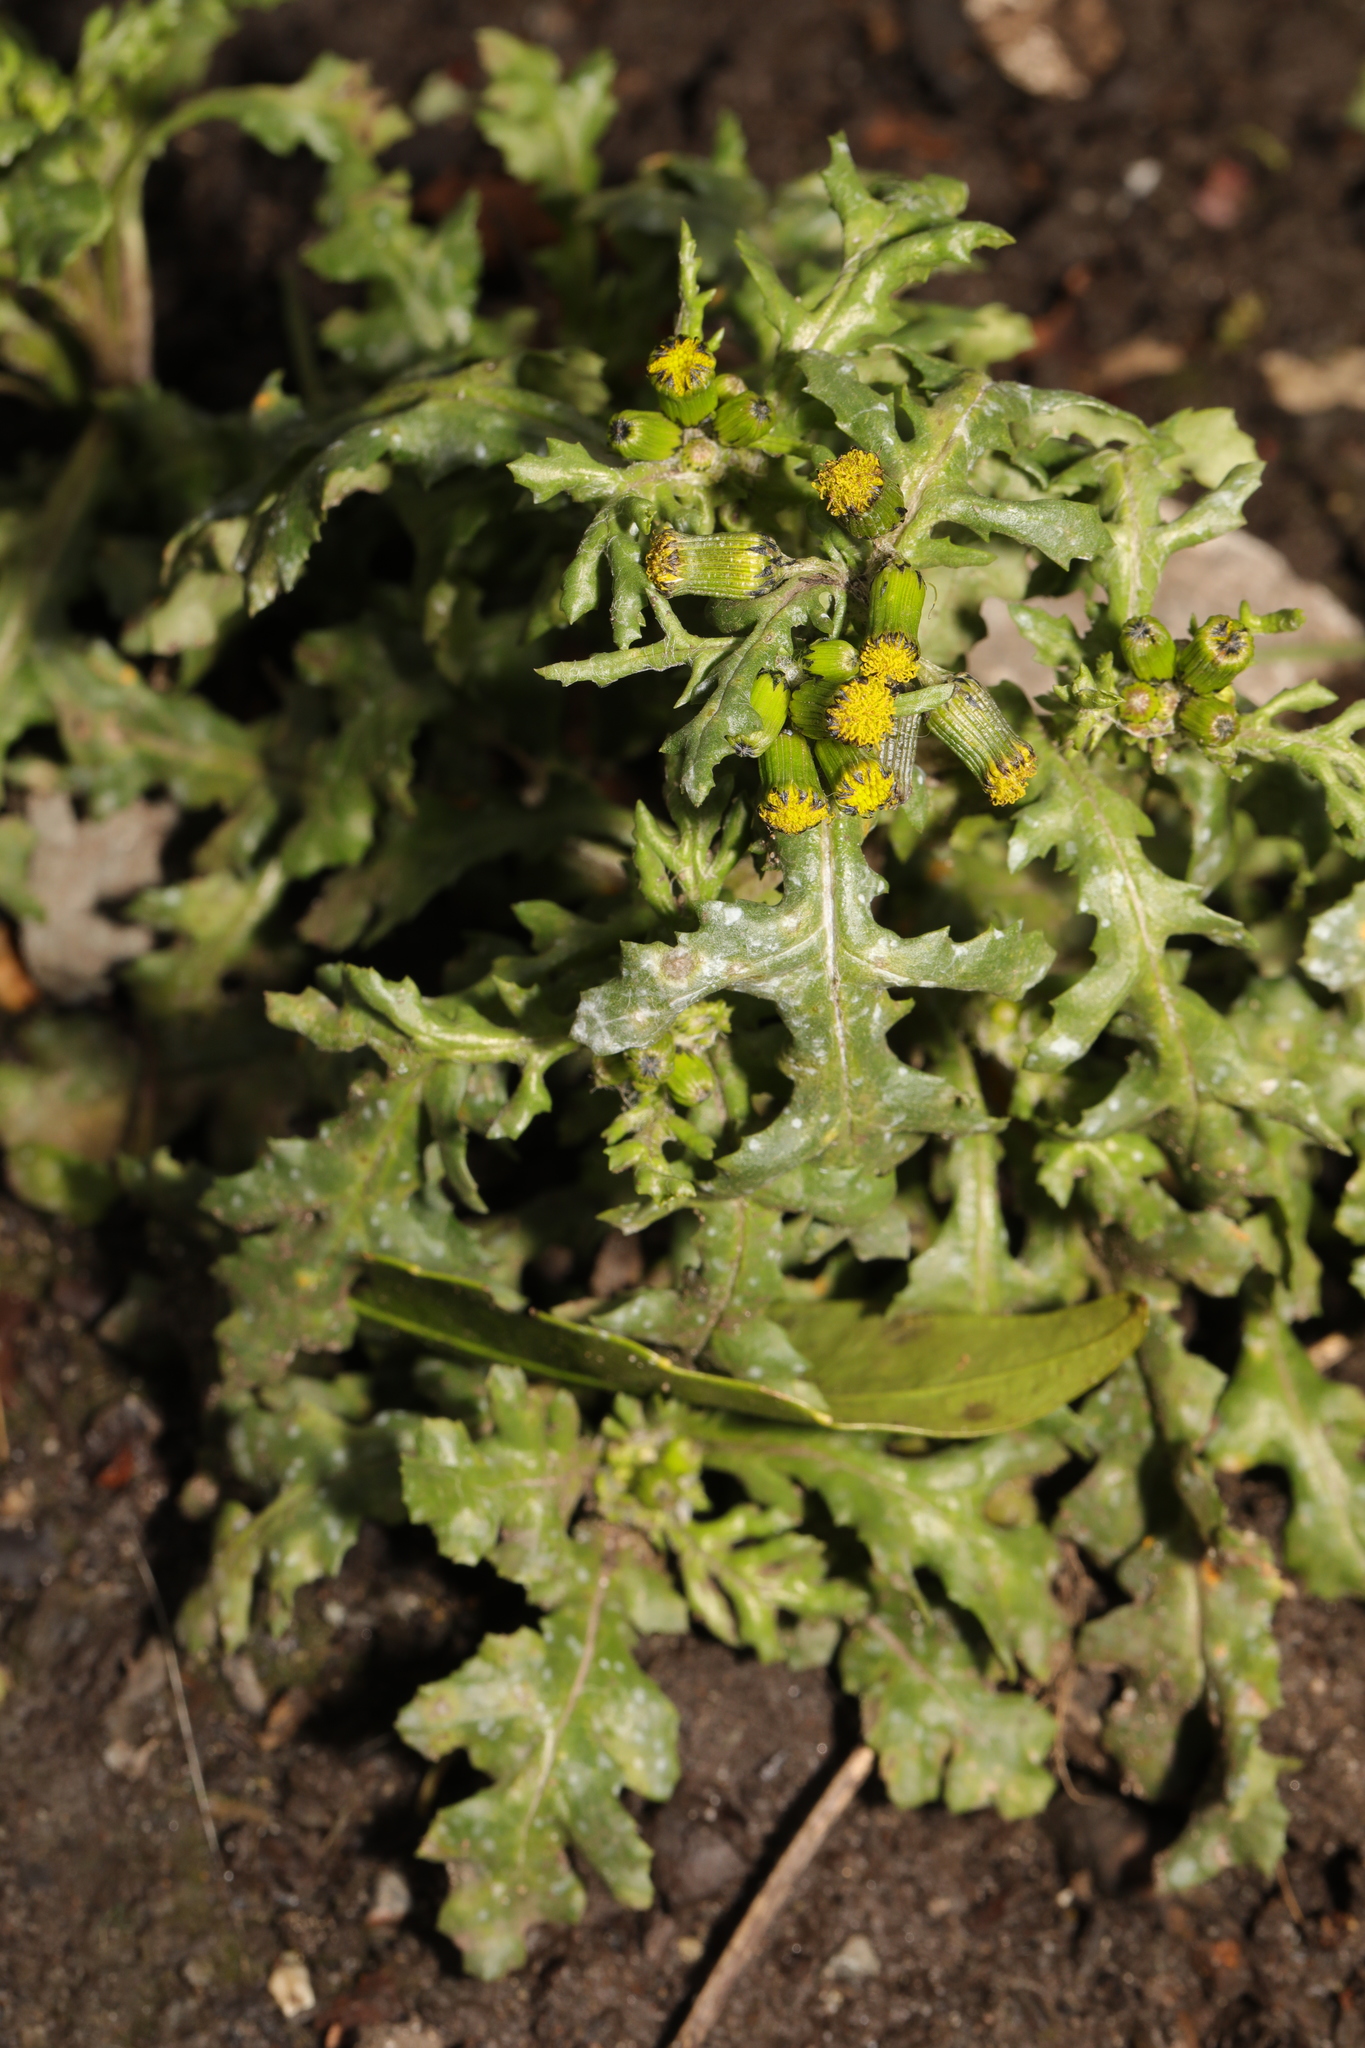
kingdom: Plantae
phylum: Tracheophyta
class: Magnoliopsida
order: Asterales
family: Asteraceae
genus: Senecio
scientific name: Senecio vulgaris
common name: Old-man-in-the-spring
